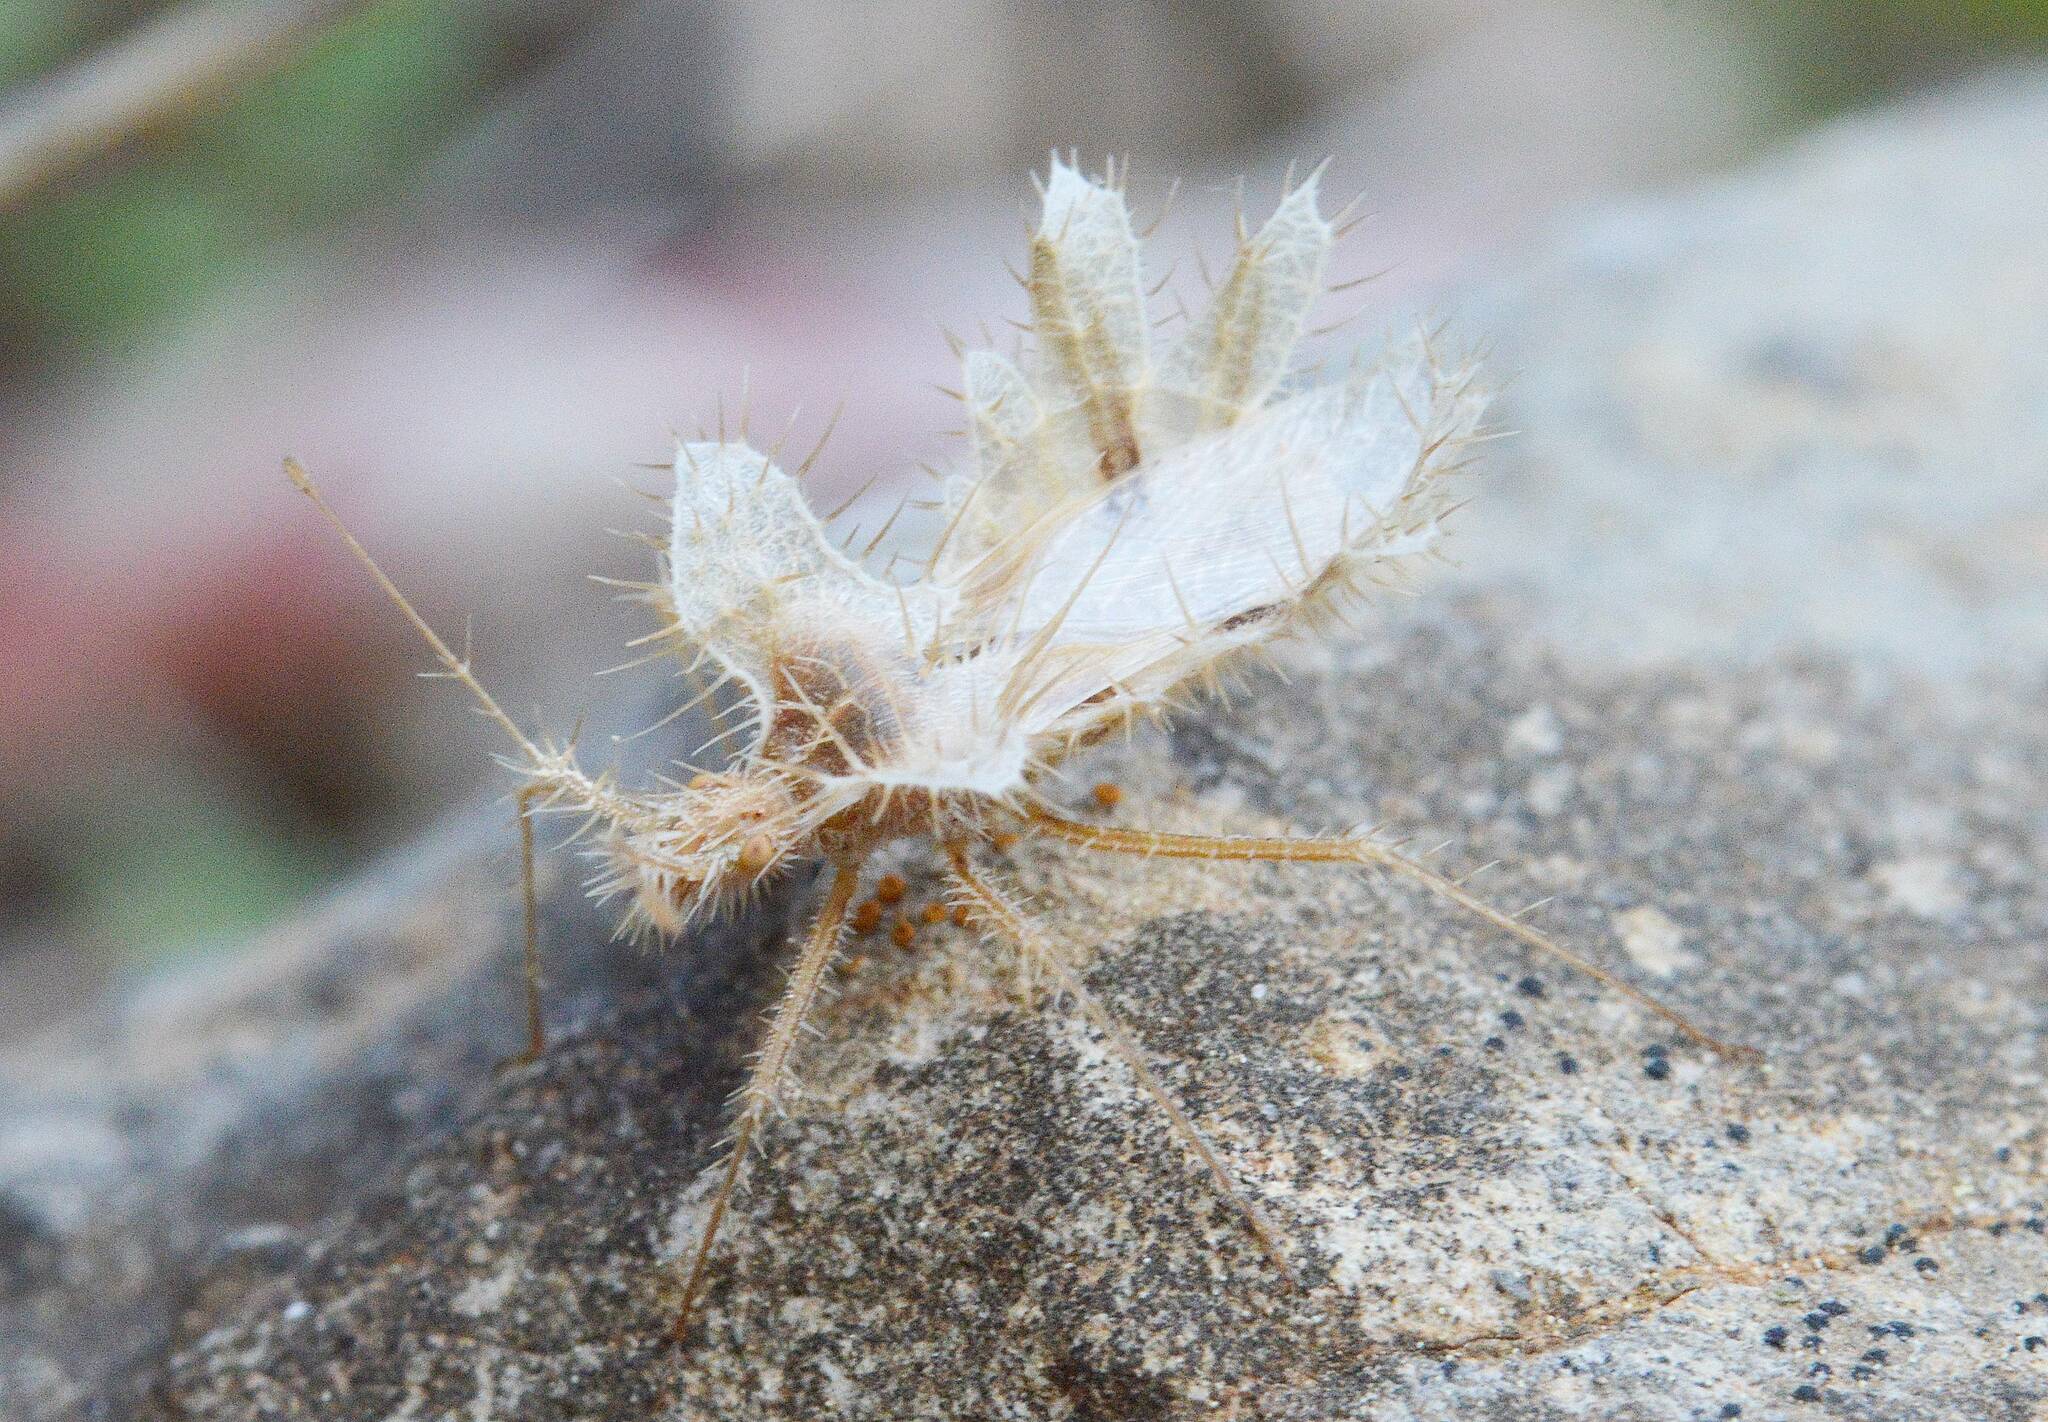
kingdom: Animalia
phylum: Arthropoda
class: Insecta
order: Hemiptera
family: Coreidae
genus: Phyllomorpha
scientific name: Phyllomorpha laciniata
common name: Golden egg bug
